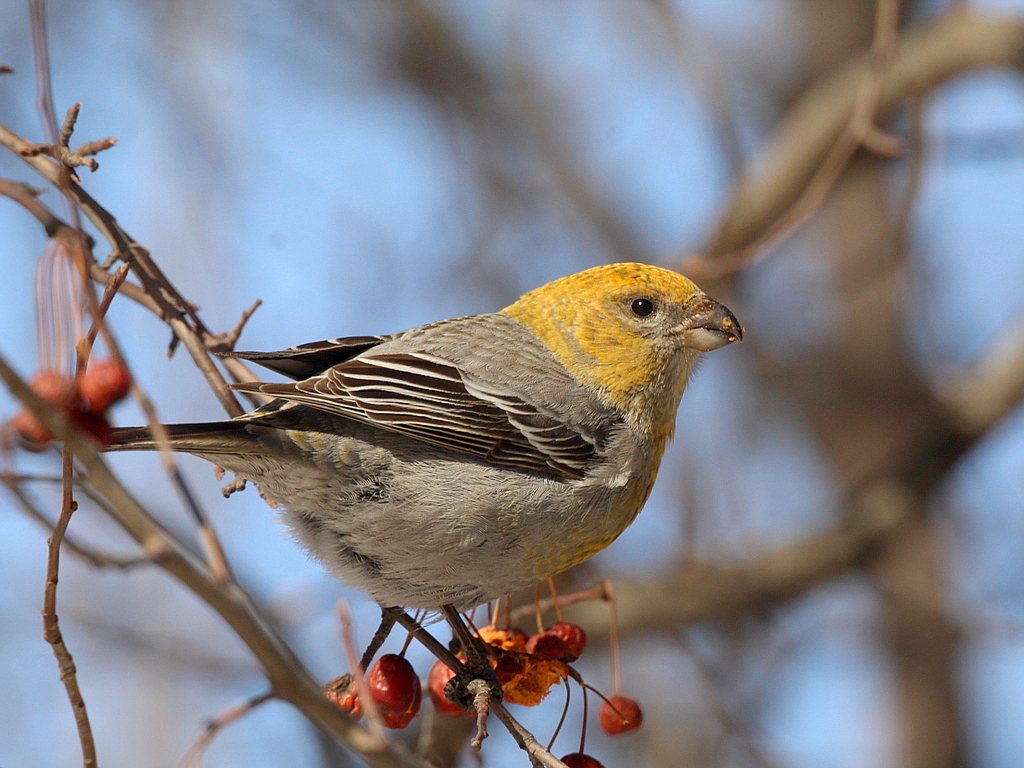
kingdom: Animalia
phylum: Chordata
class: Aves
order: Passeriformes
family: Fringillidae
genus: Pinicola
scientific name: Pinicola enucleator
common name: Pine grosbeak
